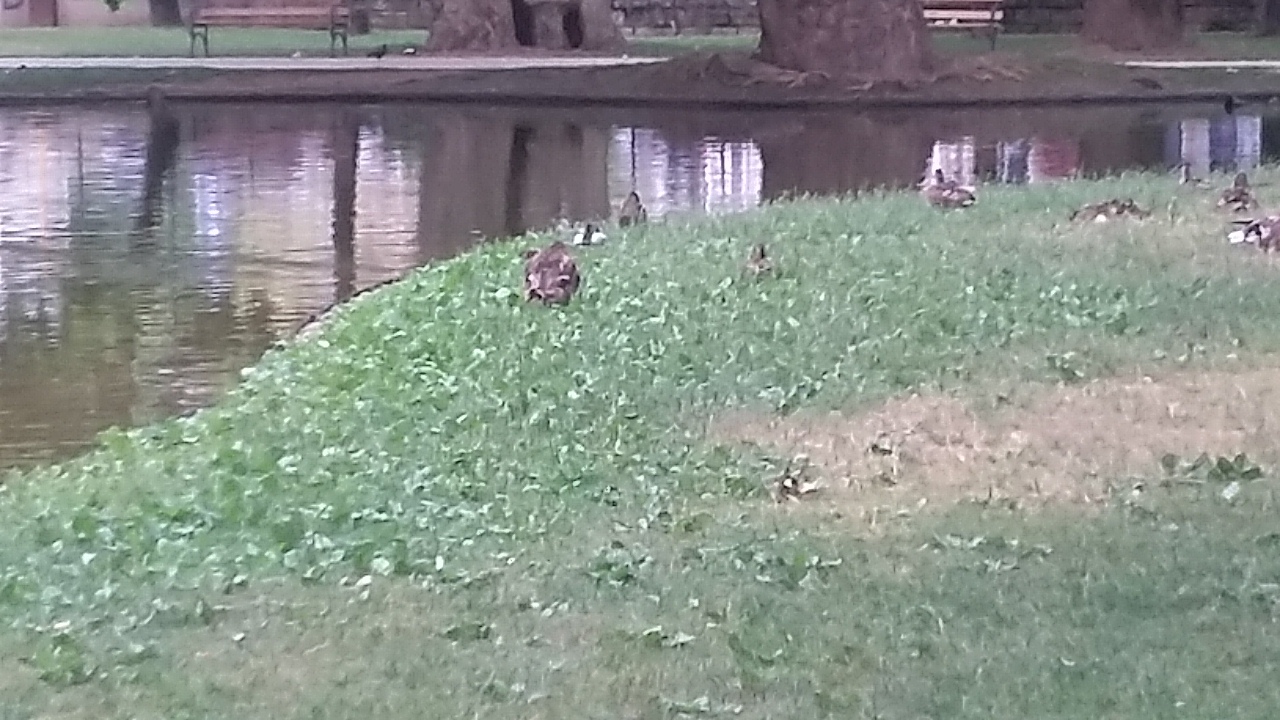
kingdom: Animalia
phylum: Chordata
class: Aves
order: Anseriformes
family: Anatidae
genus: Anas
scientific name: Anas platyrhynchos
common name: Mallard
